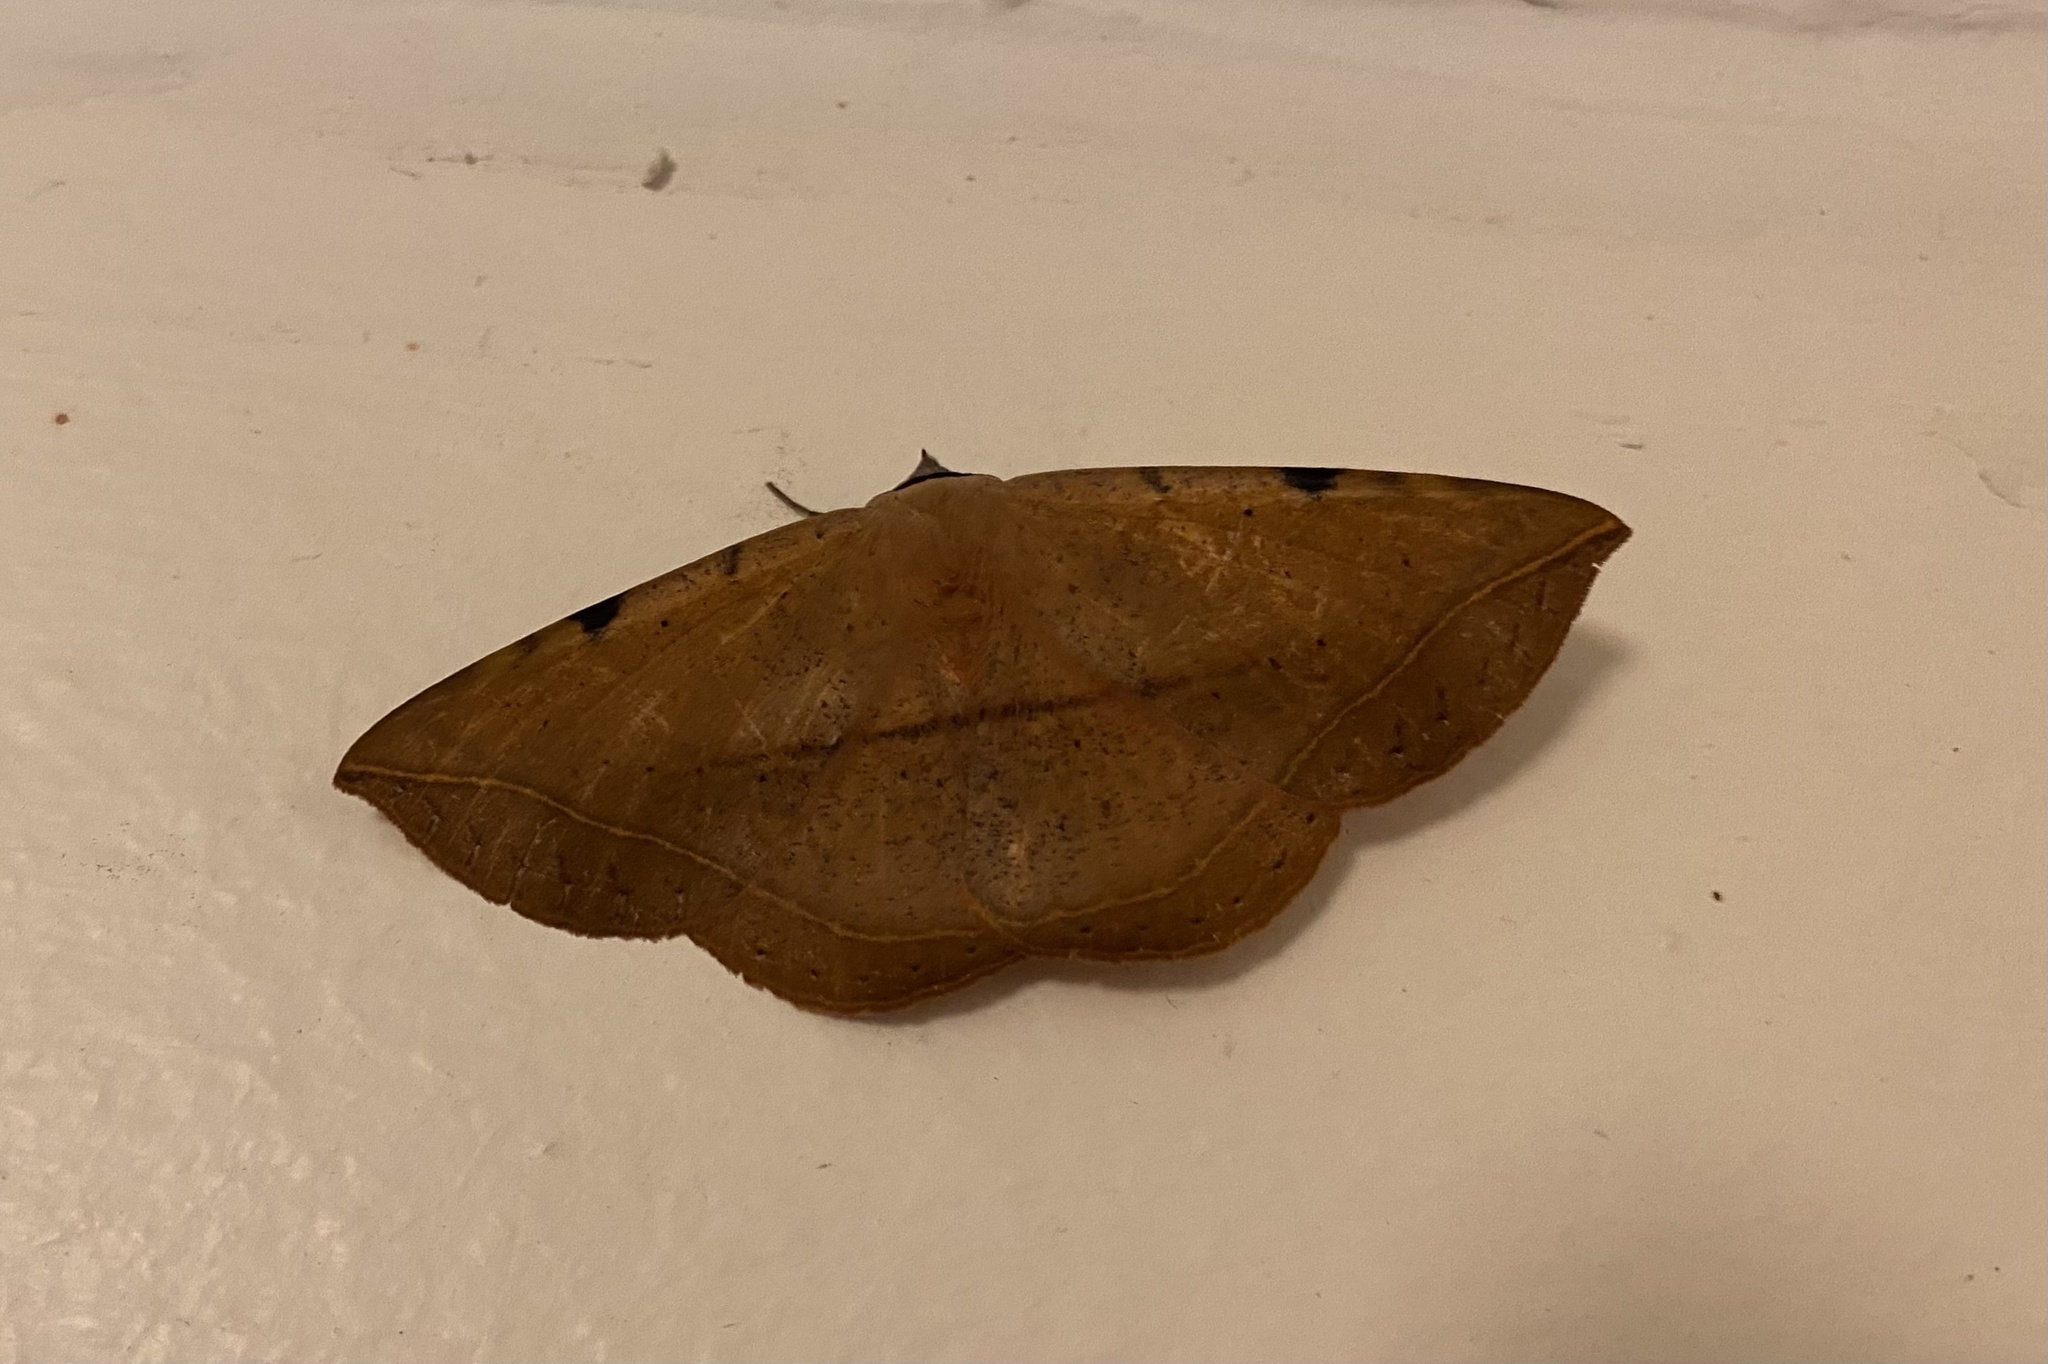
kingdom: Animalia
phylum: Arthropoda
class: Insecta
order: Lepidoptera
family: Erebidae
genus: Hypopyra
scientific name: Hypopyra capensis
